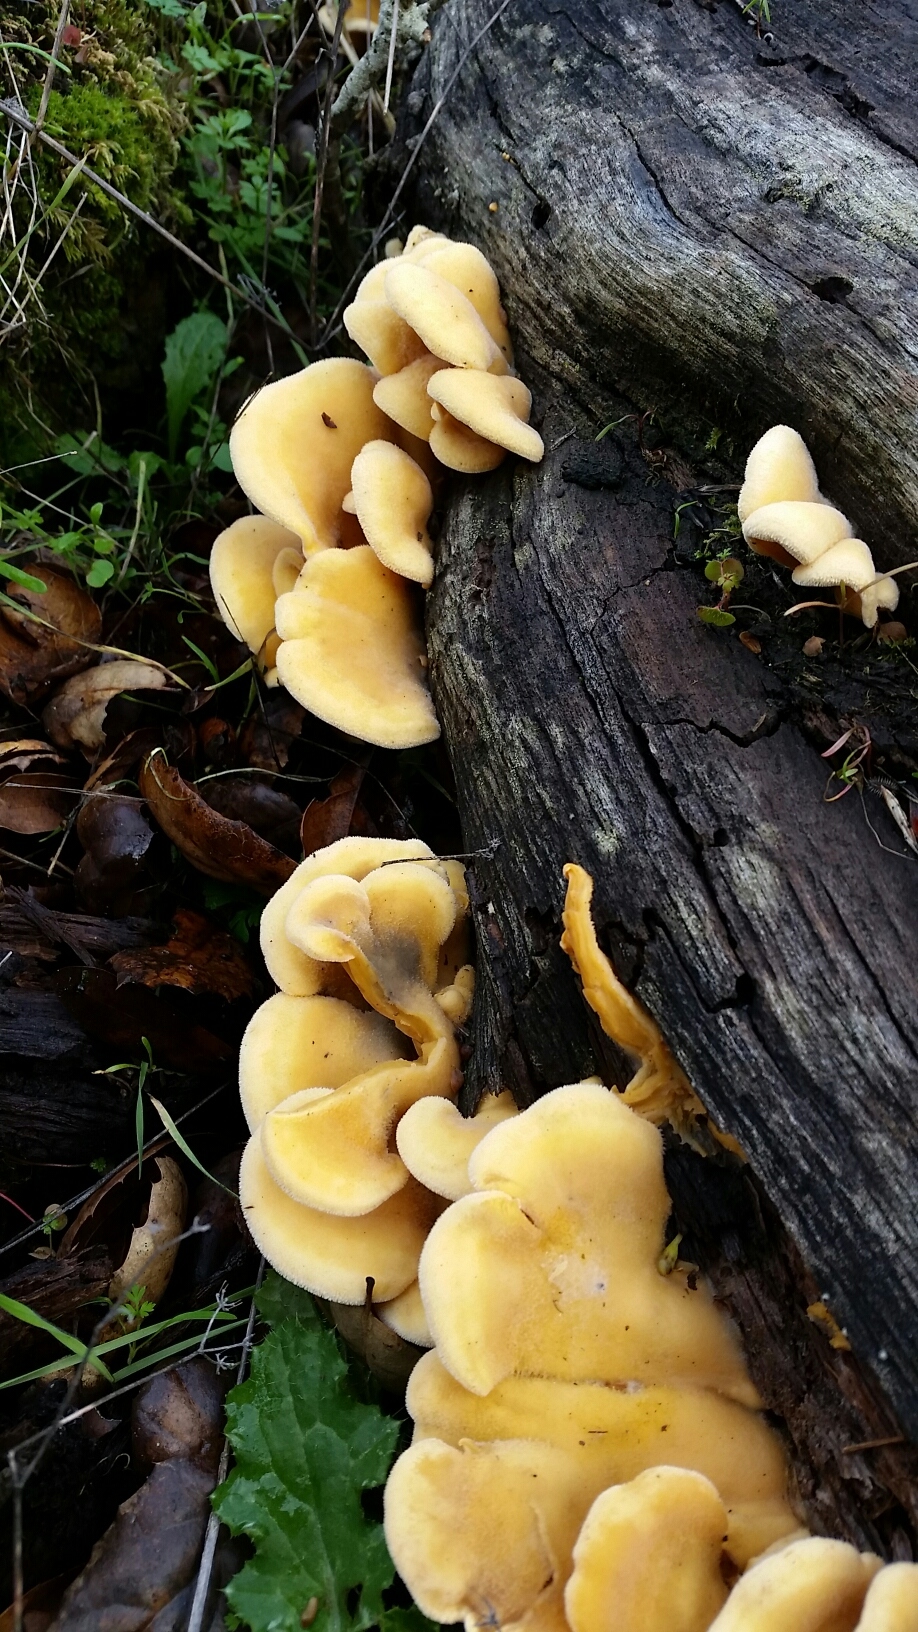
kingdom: Fungi
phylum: Basidiomycota
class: Agaricomycetes
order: Agaricales
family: Phyllotopsidaceae
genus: Phyllotopsis
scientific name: Phyllotopsis nidulans
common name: Orange mock oyster
